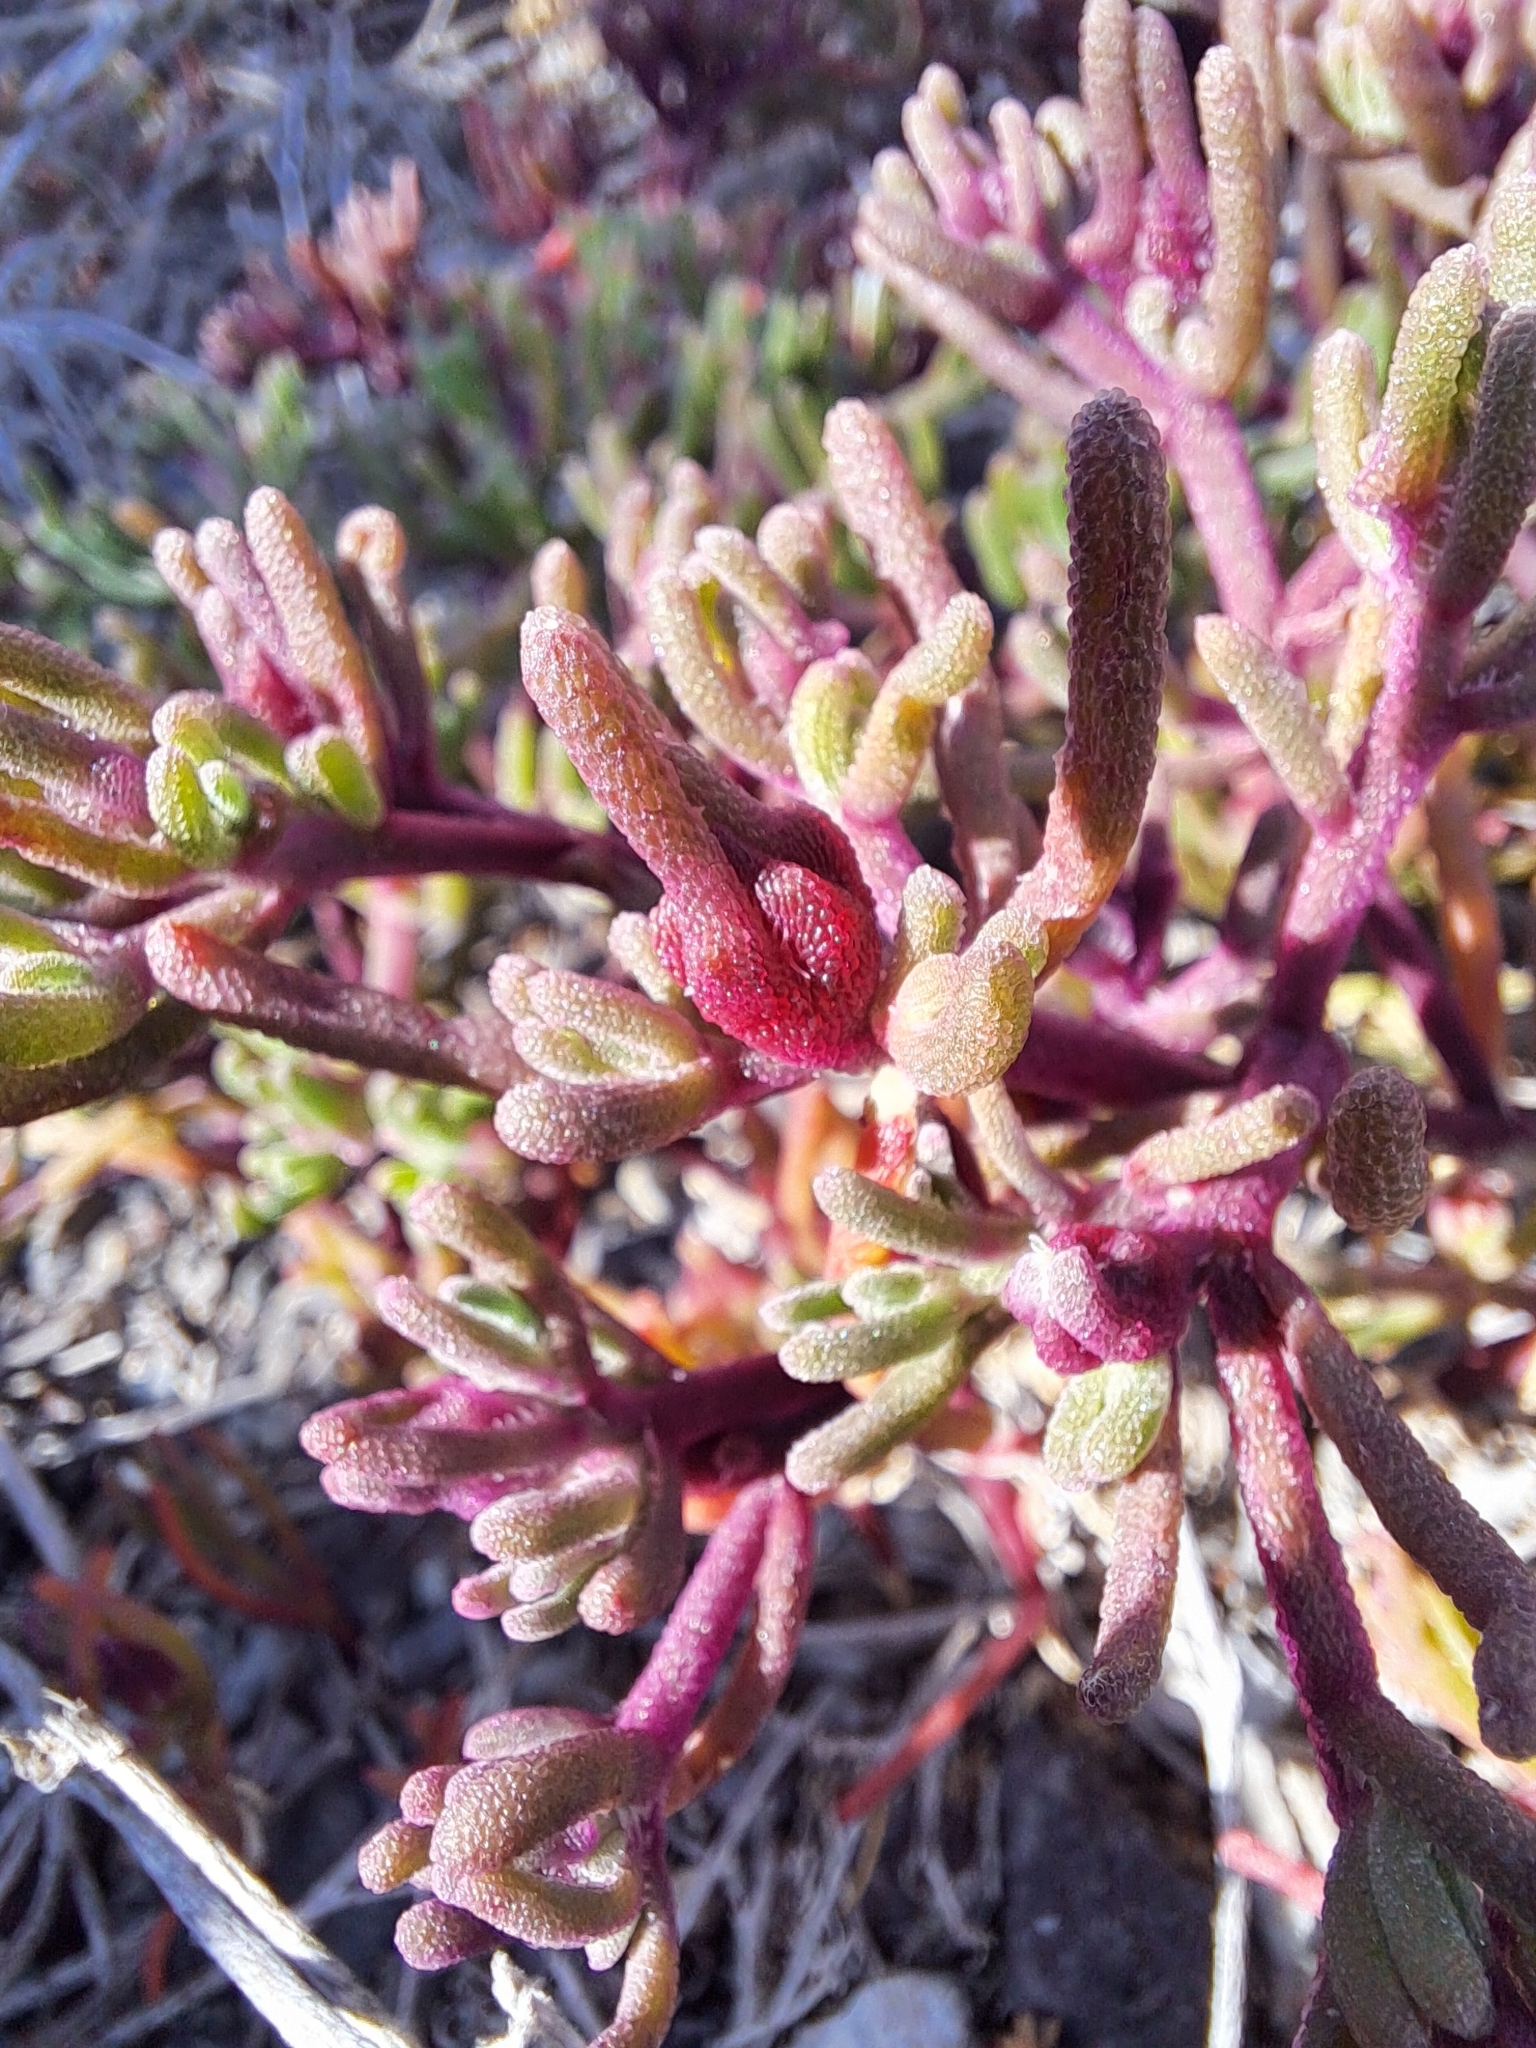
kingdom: Plantae
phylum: Tracheophyta
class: Magnoliopsida
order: Caryophyllales
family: Aizoaceae
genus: Mesembryanthemum
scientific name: Mesembryanthemum nodiflorum
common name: Slenderleaf iceplant
